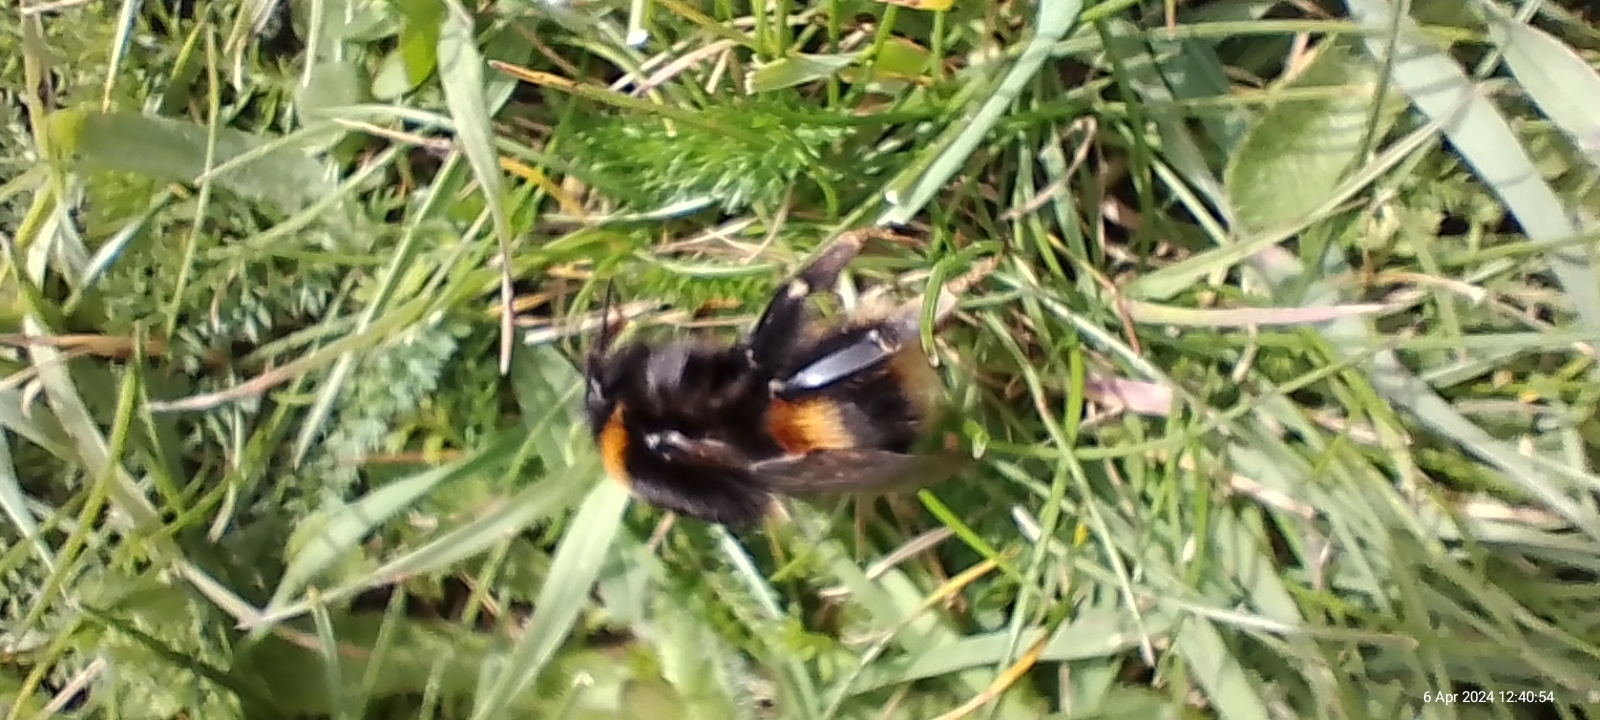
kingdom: Animalia
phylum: Arthropoda
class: Insecta
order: Hymenoptera
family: Apidae
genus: Bombus
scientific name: Bombus terrestris
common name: Buff-tailed bumblebee
